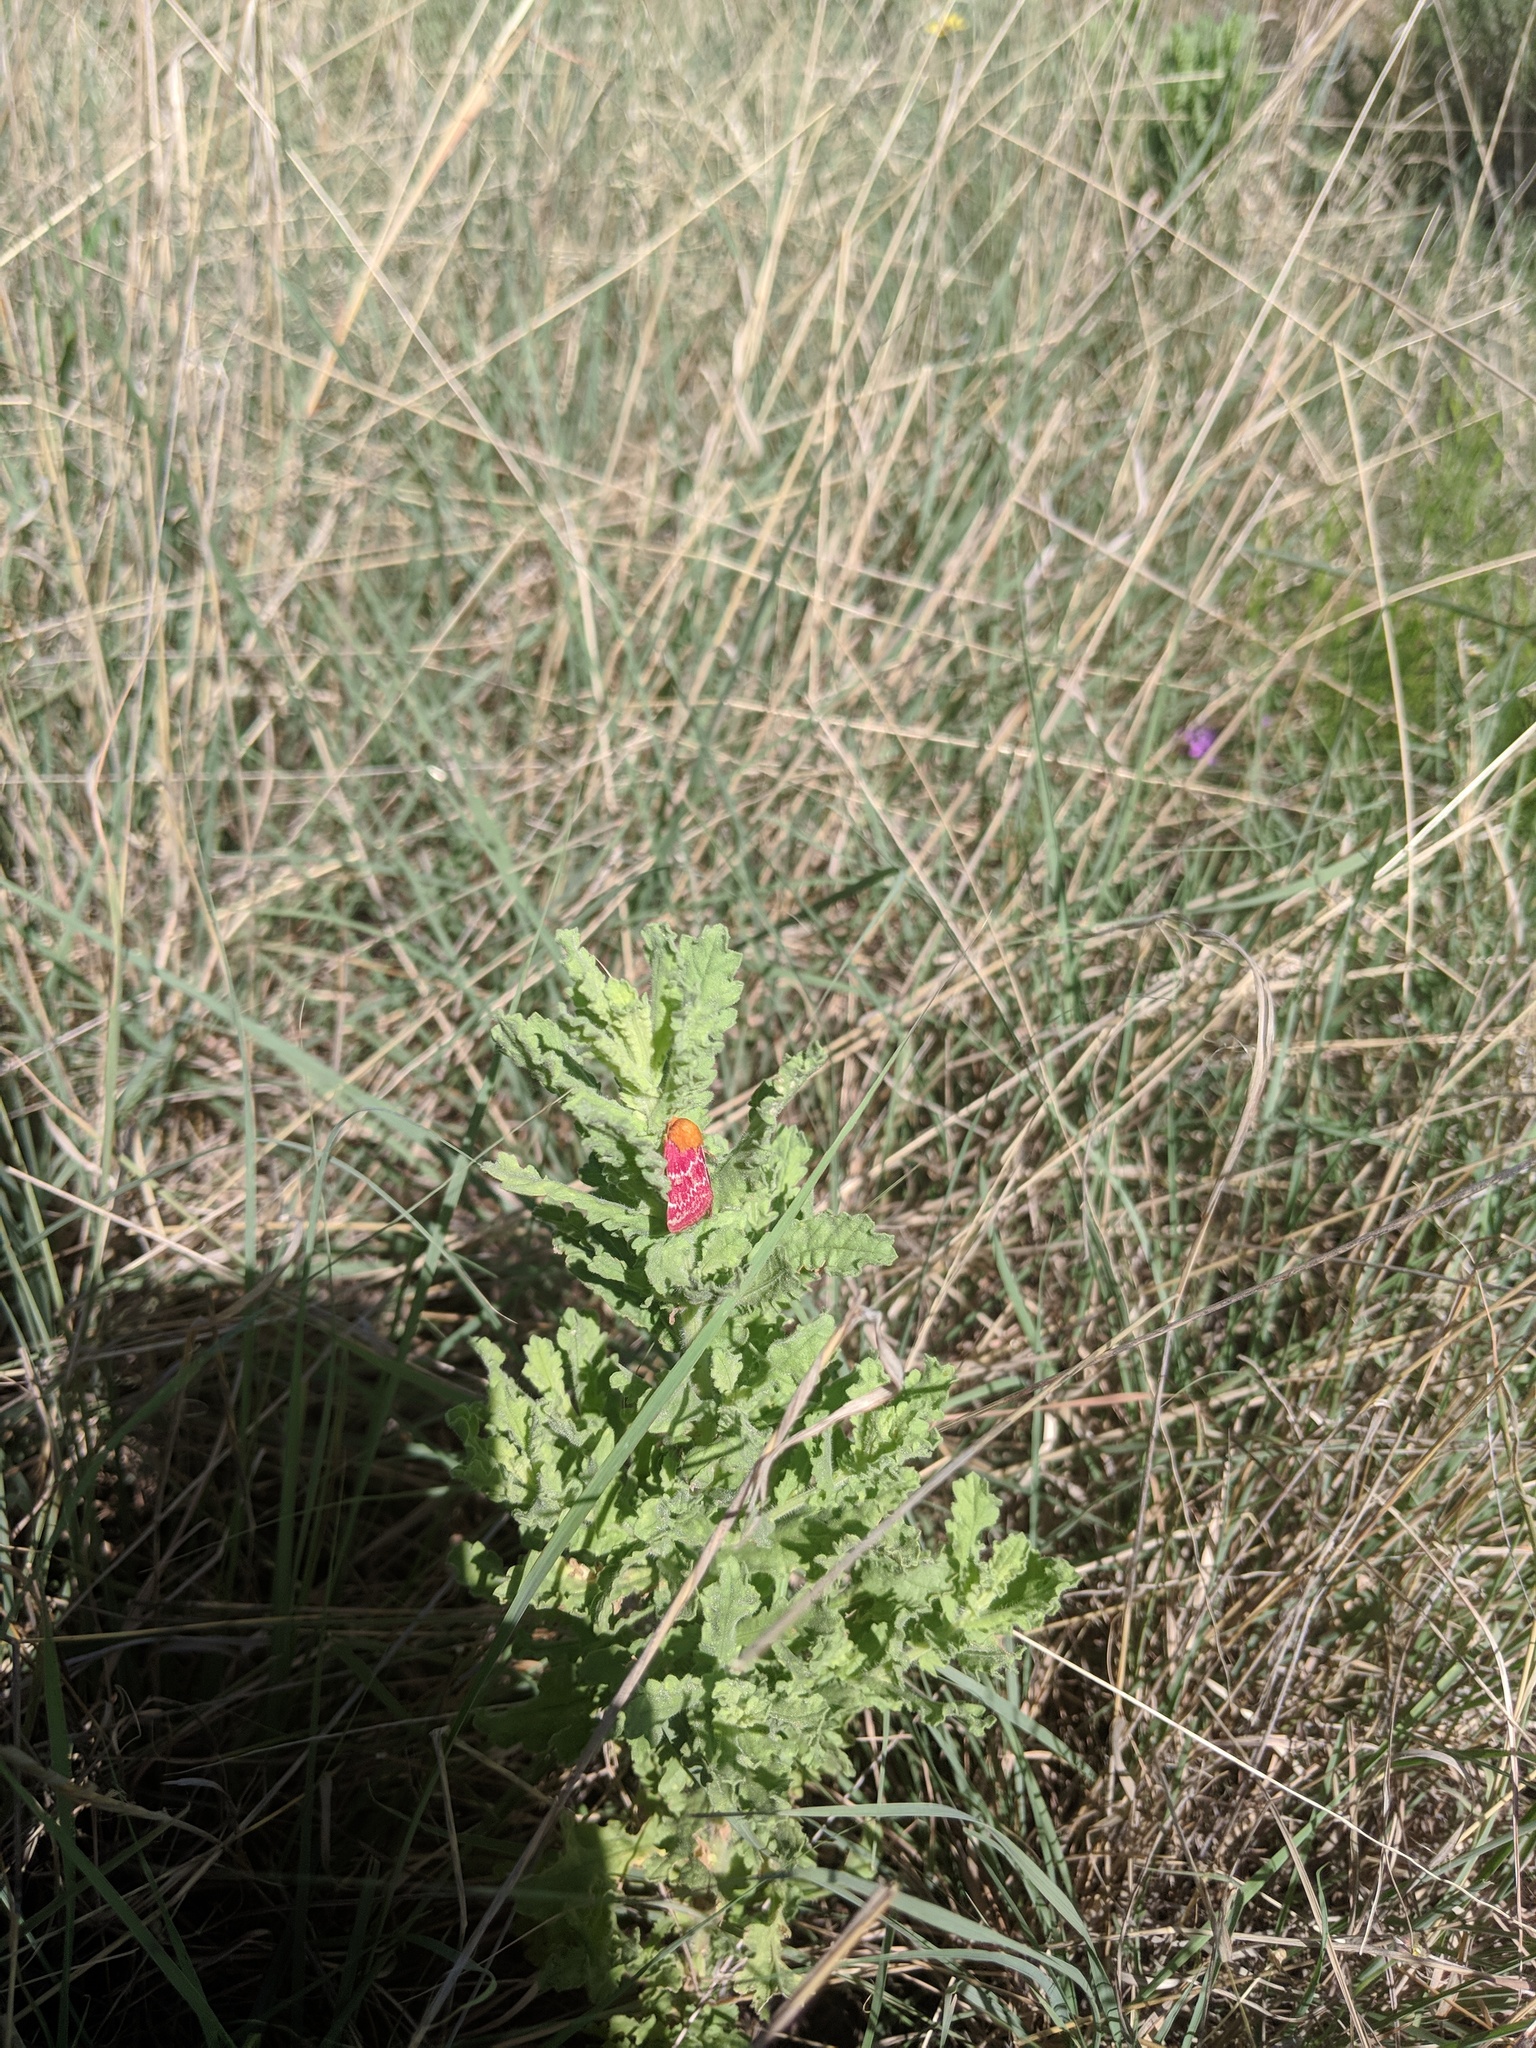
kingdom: Animalia
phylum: Arthropoda
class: Insecta
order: Lepidoptera
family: Noctuidae
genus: Schinia
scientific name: Schinia volupia
